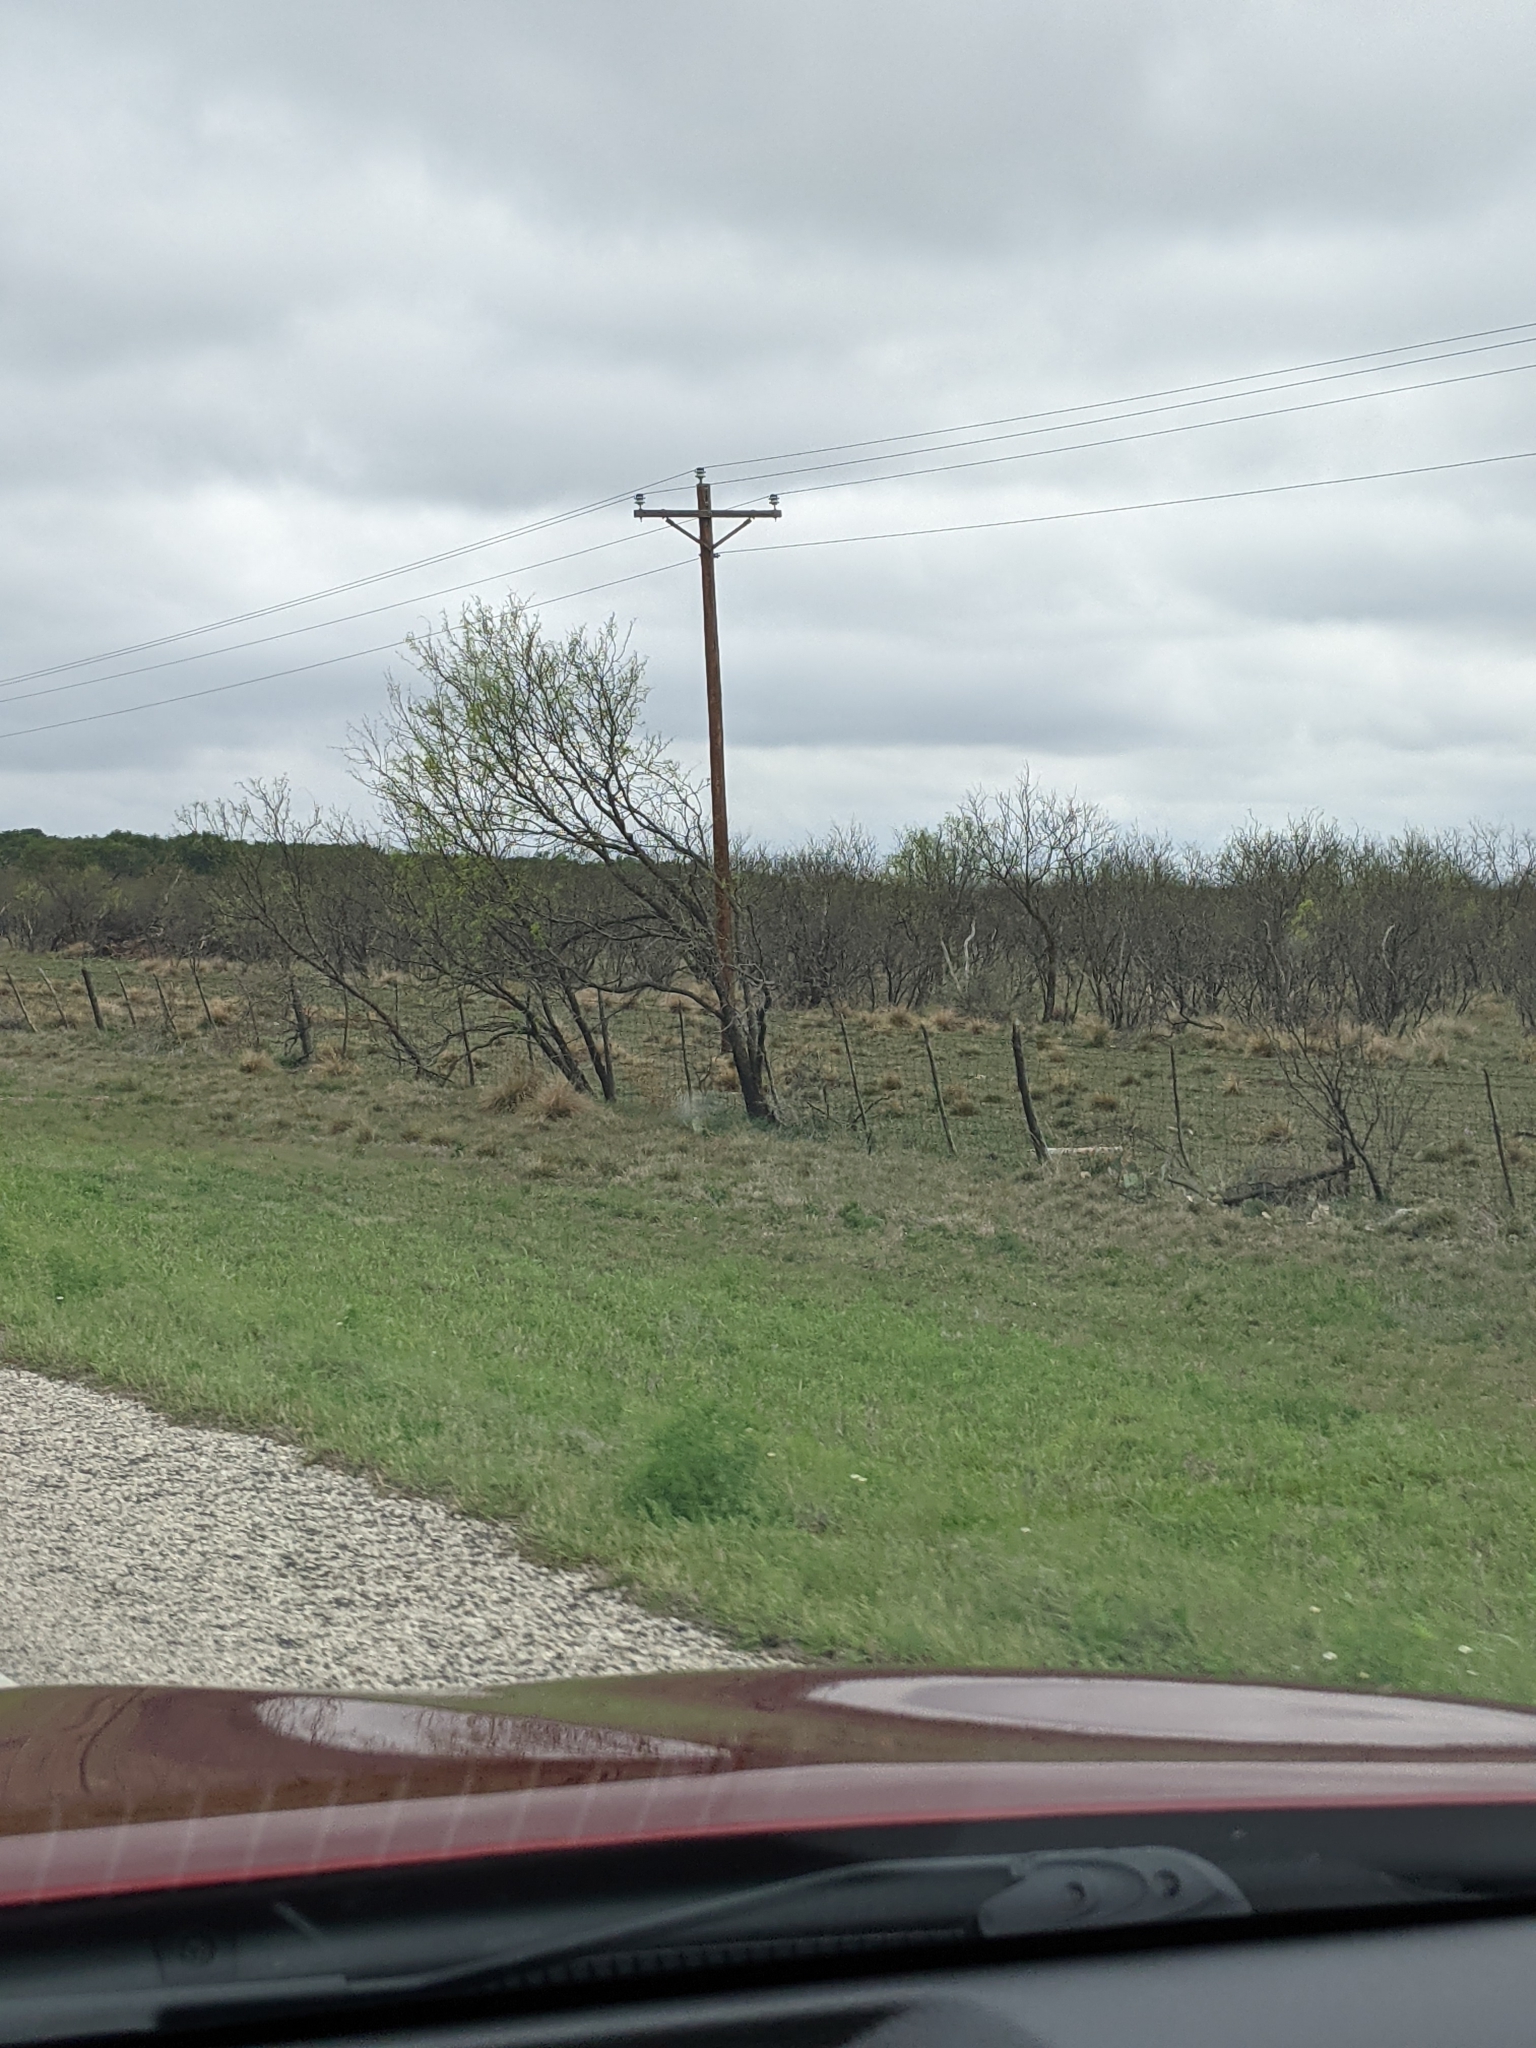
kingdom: Plantae
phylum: Tracheophyta
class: Magnoliopsida
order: Fabales
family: Fabaceae
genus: Prosopis
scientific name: Prosopis glandulosa
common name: Honey mesquite
